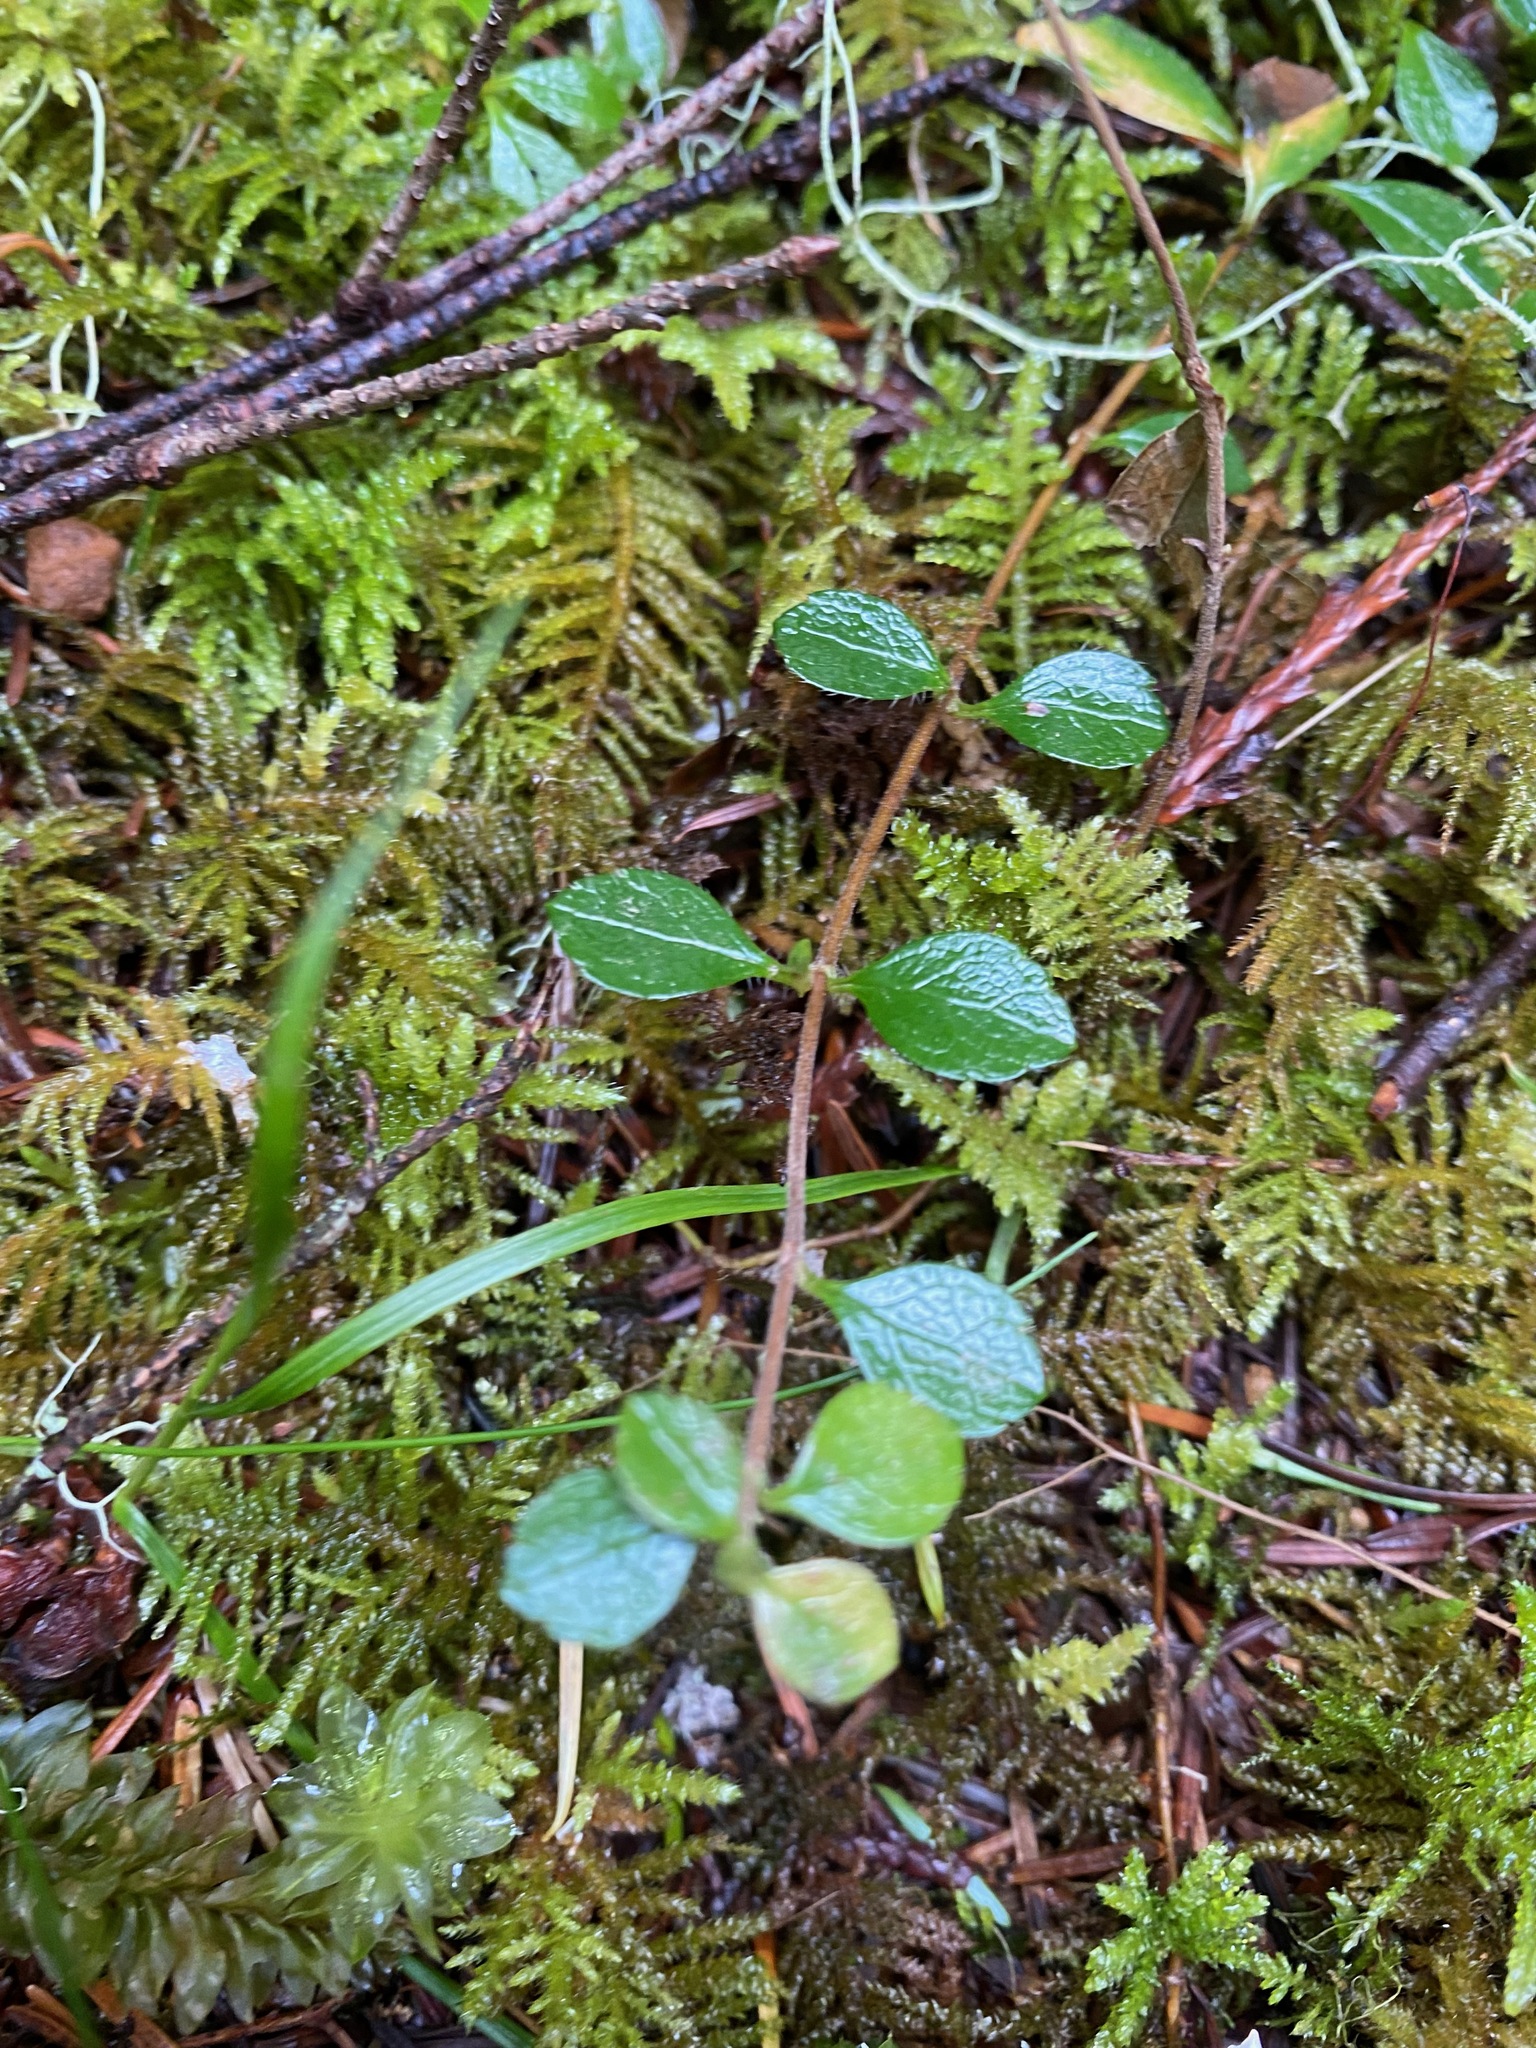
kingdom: Plantae
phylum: Tracheophyta
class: Magnoliopsida
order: Dipsacales
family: Caprifoliaceae
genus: Linnaea
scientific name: Linnaea borealis
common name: Twinflower
